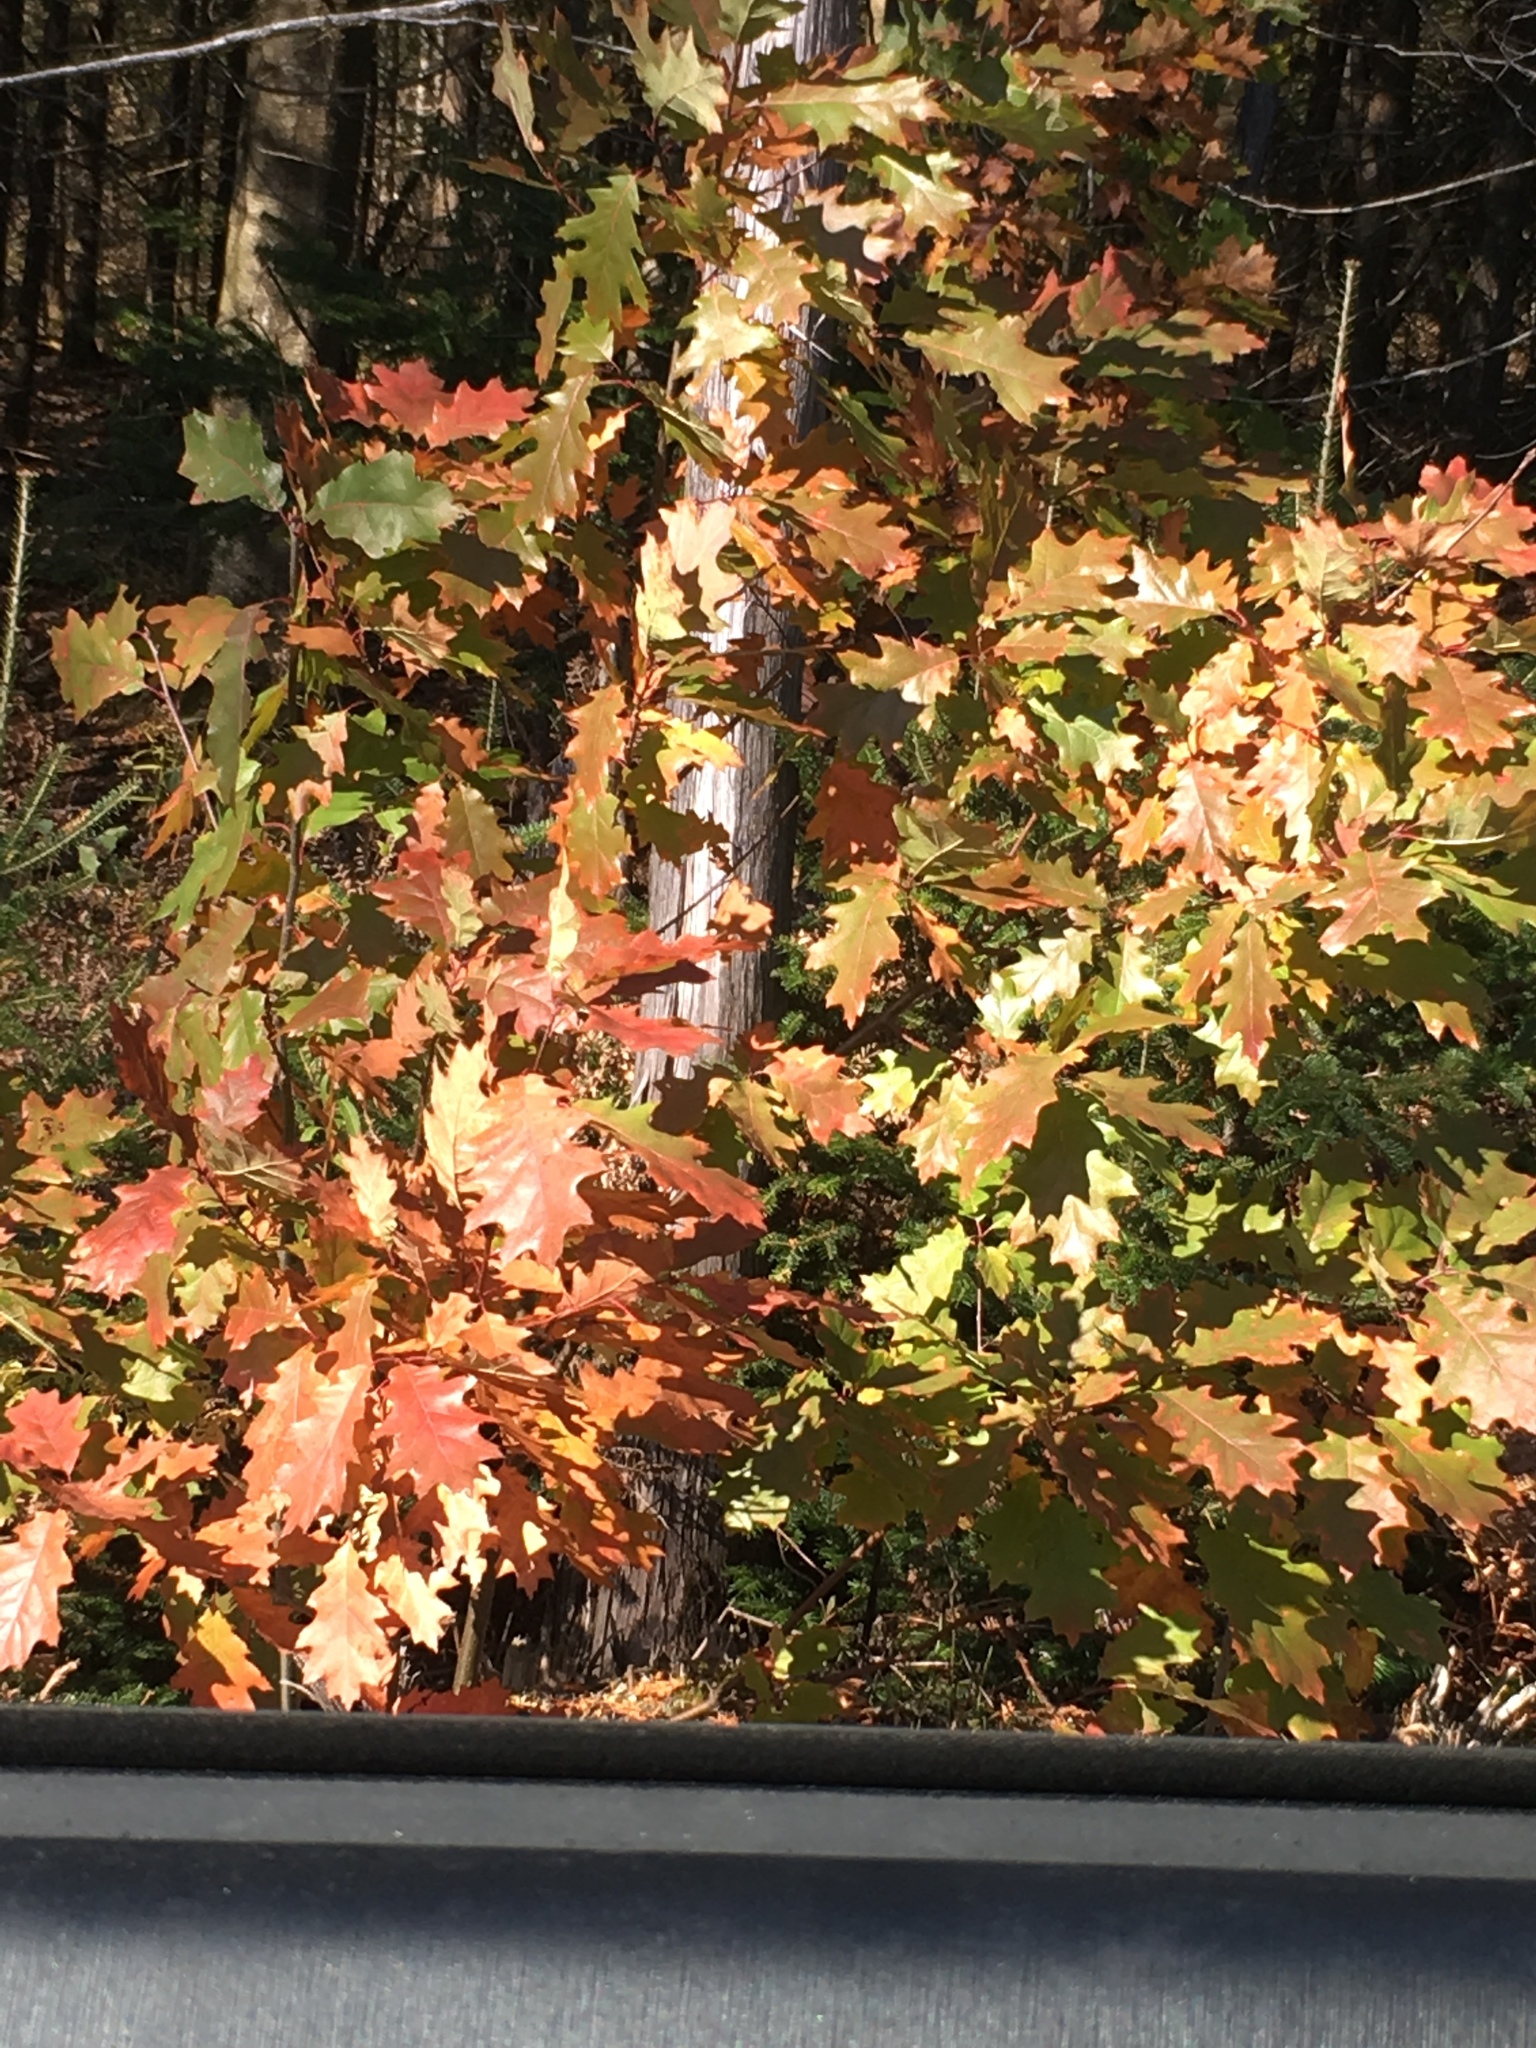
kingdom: Plantae
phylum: Tracheophyta
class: Magnoliopsida
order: Fagales
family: Fagaceae
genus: Quercus
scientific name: Quercus rubra
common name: Red oak
